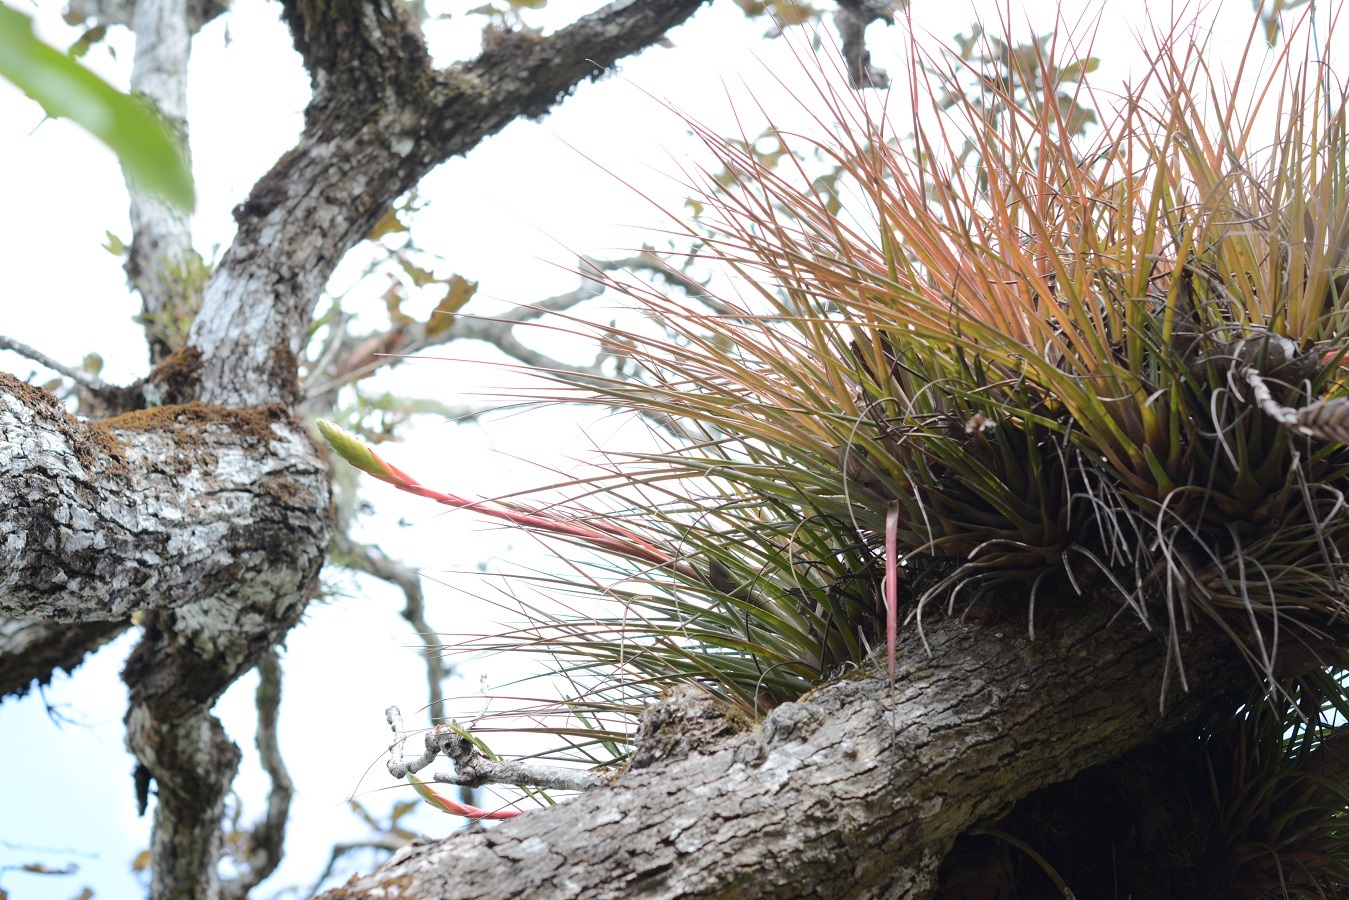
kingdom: Plantae
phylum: Tracheophyta
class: Liliopsida
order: Poales
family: Bromeliaceae
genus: Tillandsia
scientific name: Tillandsia tricolor
